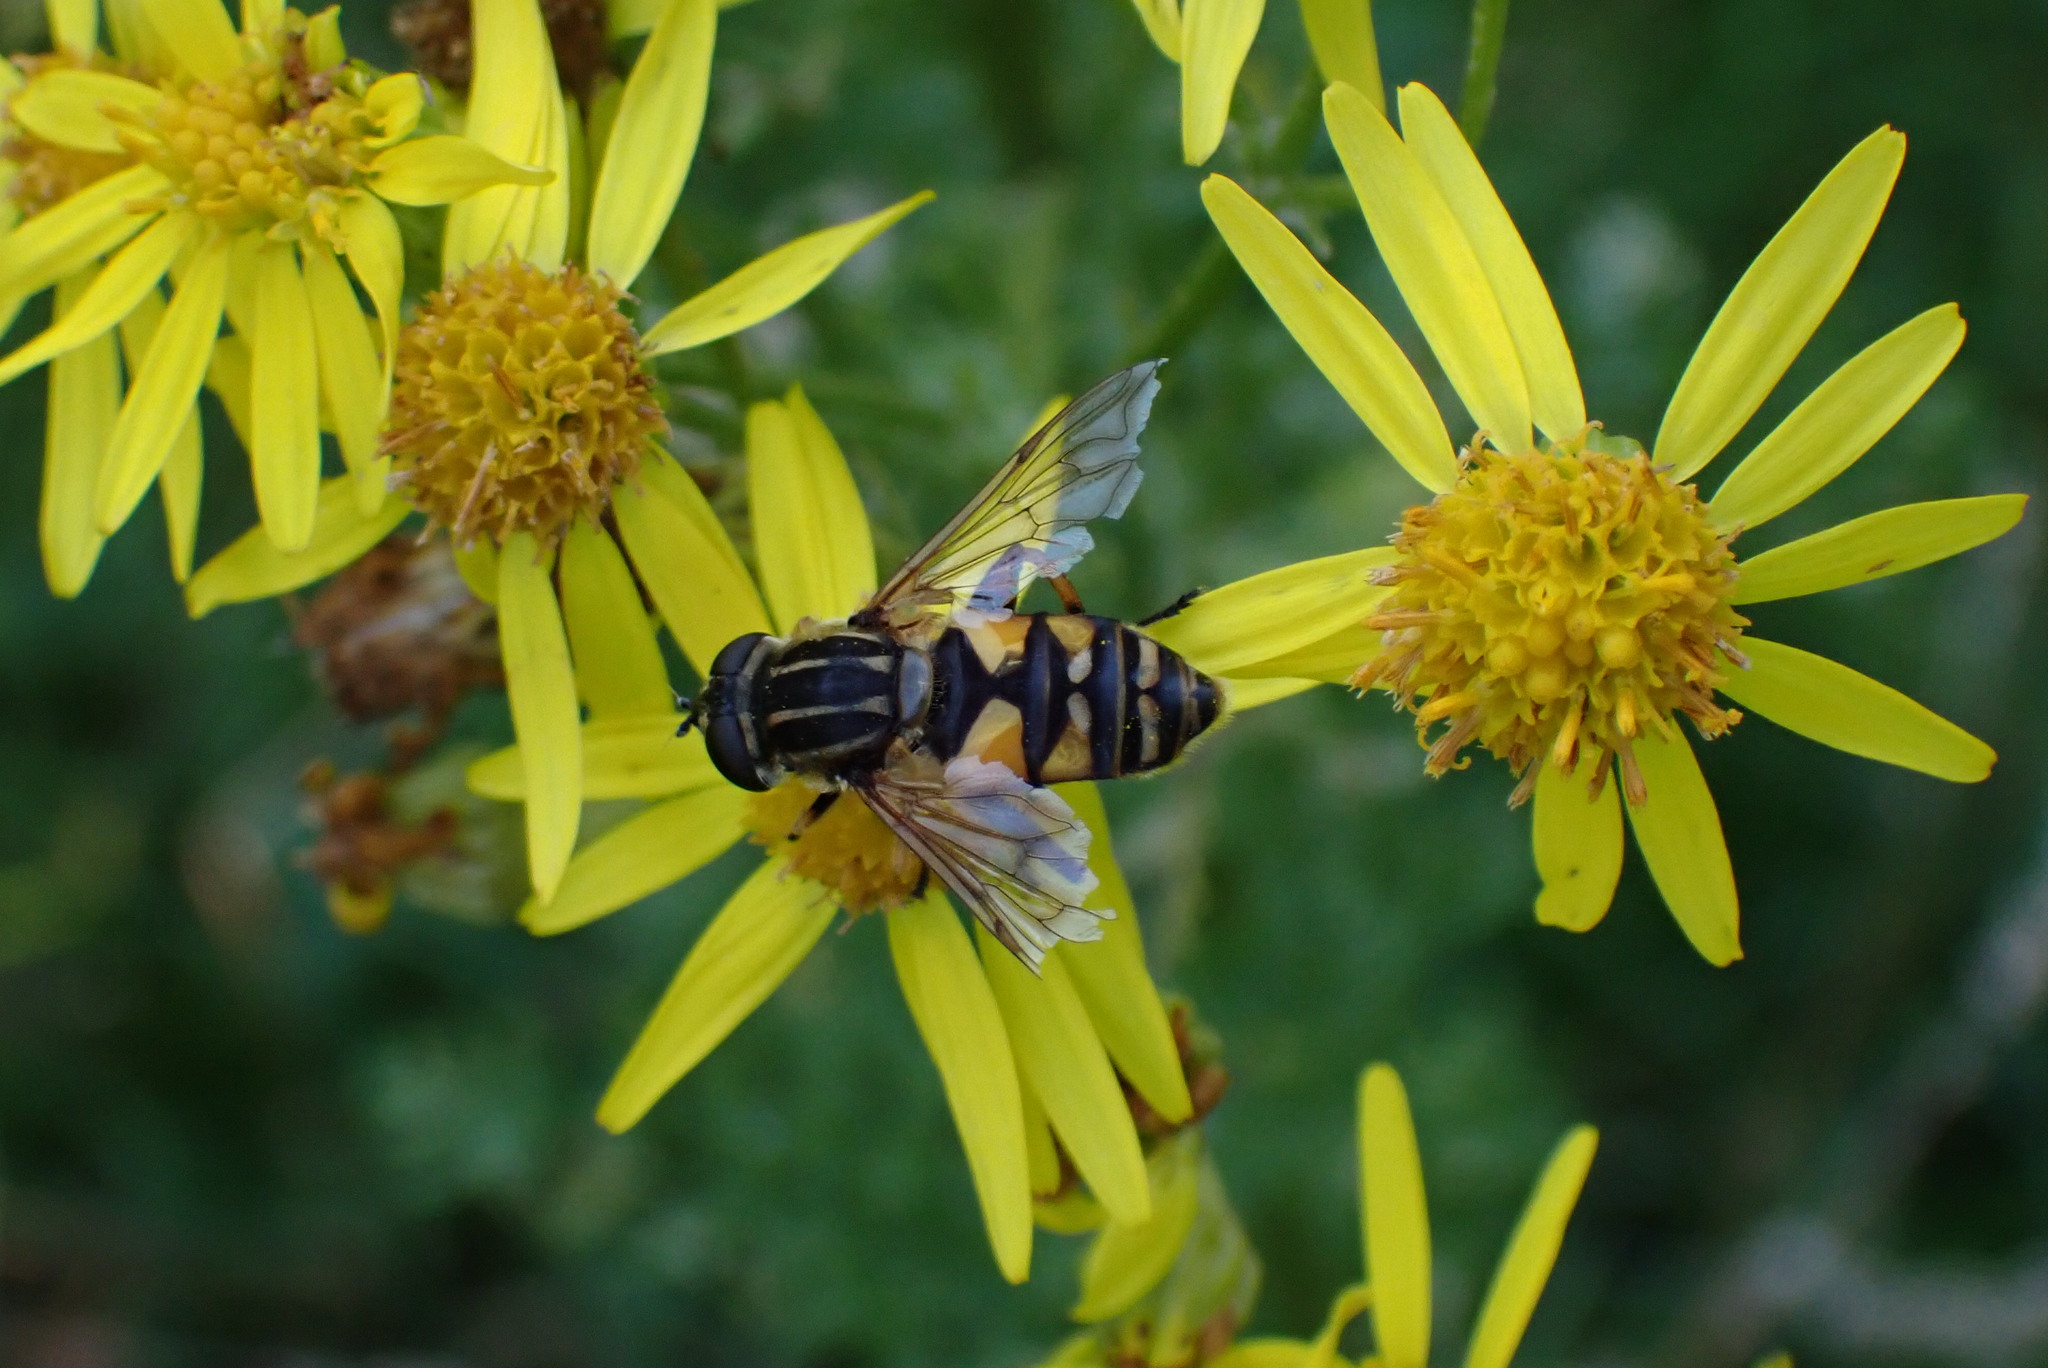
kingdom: Animalia
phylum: Arthropoda
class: Insecta
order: Diptera
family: Syrphidae
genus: Helophilus
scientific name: Helophilus pendulus
